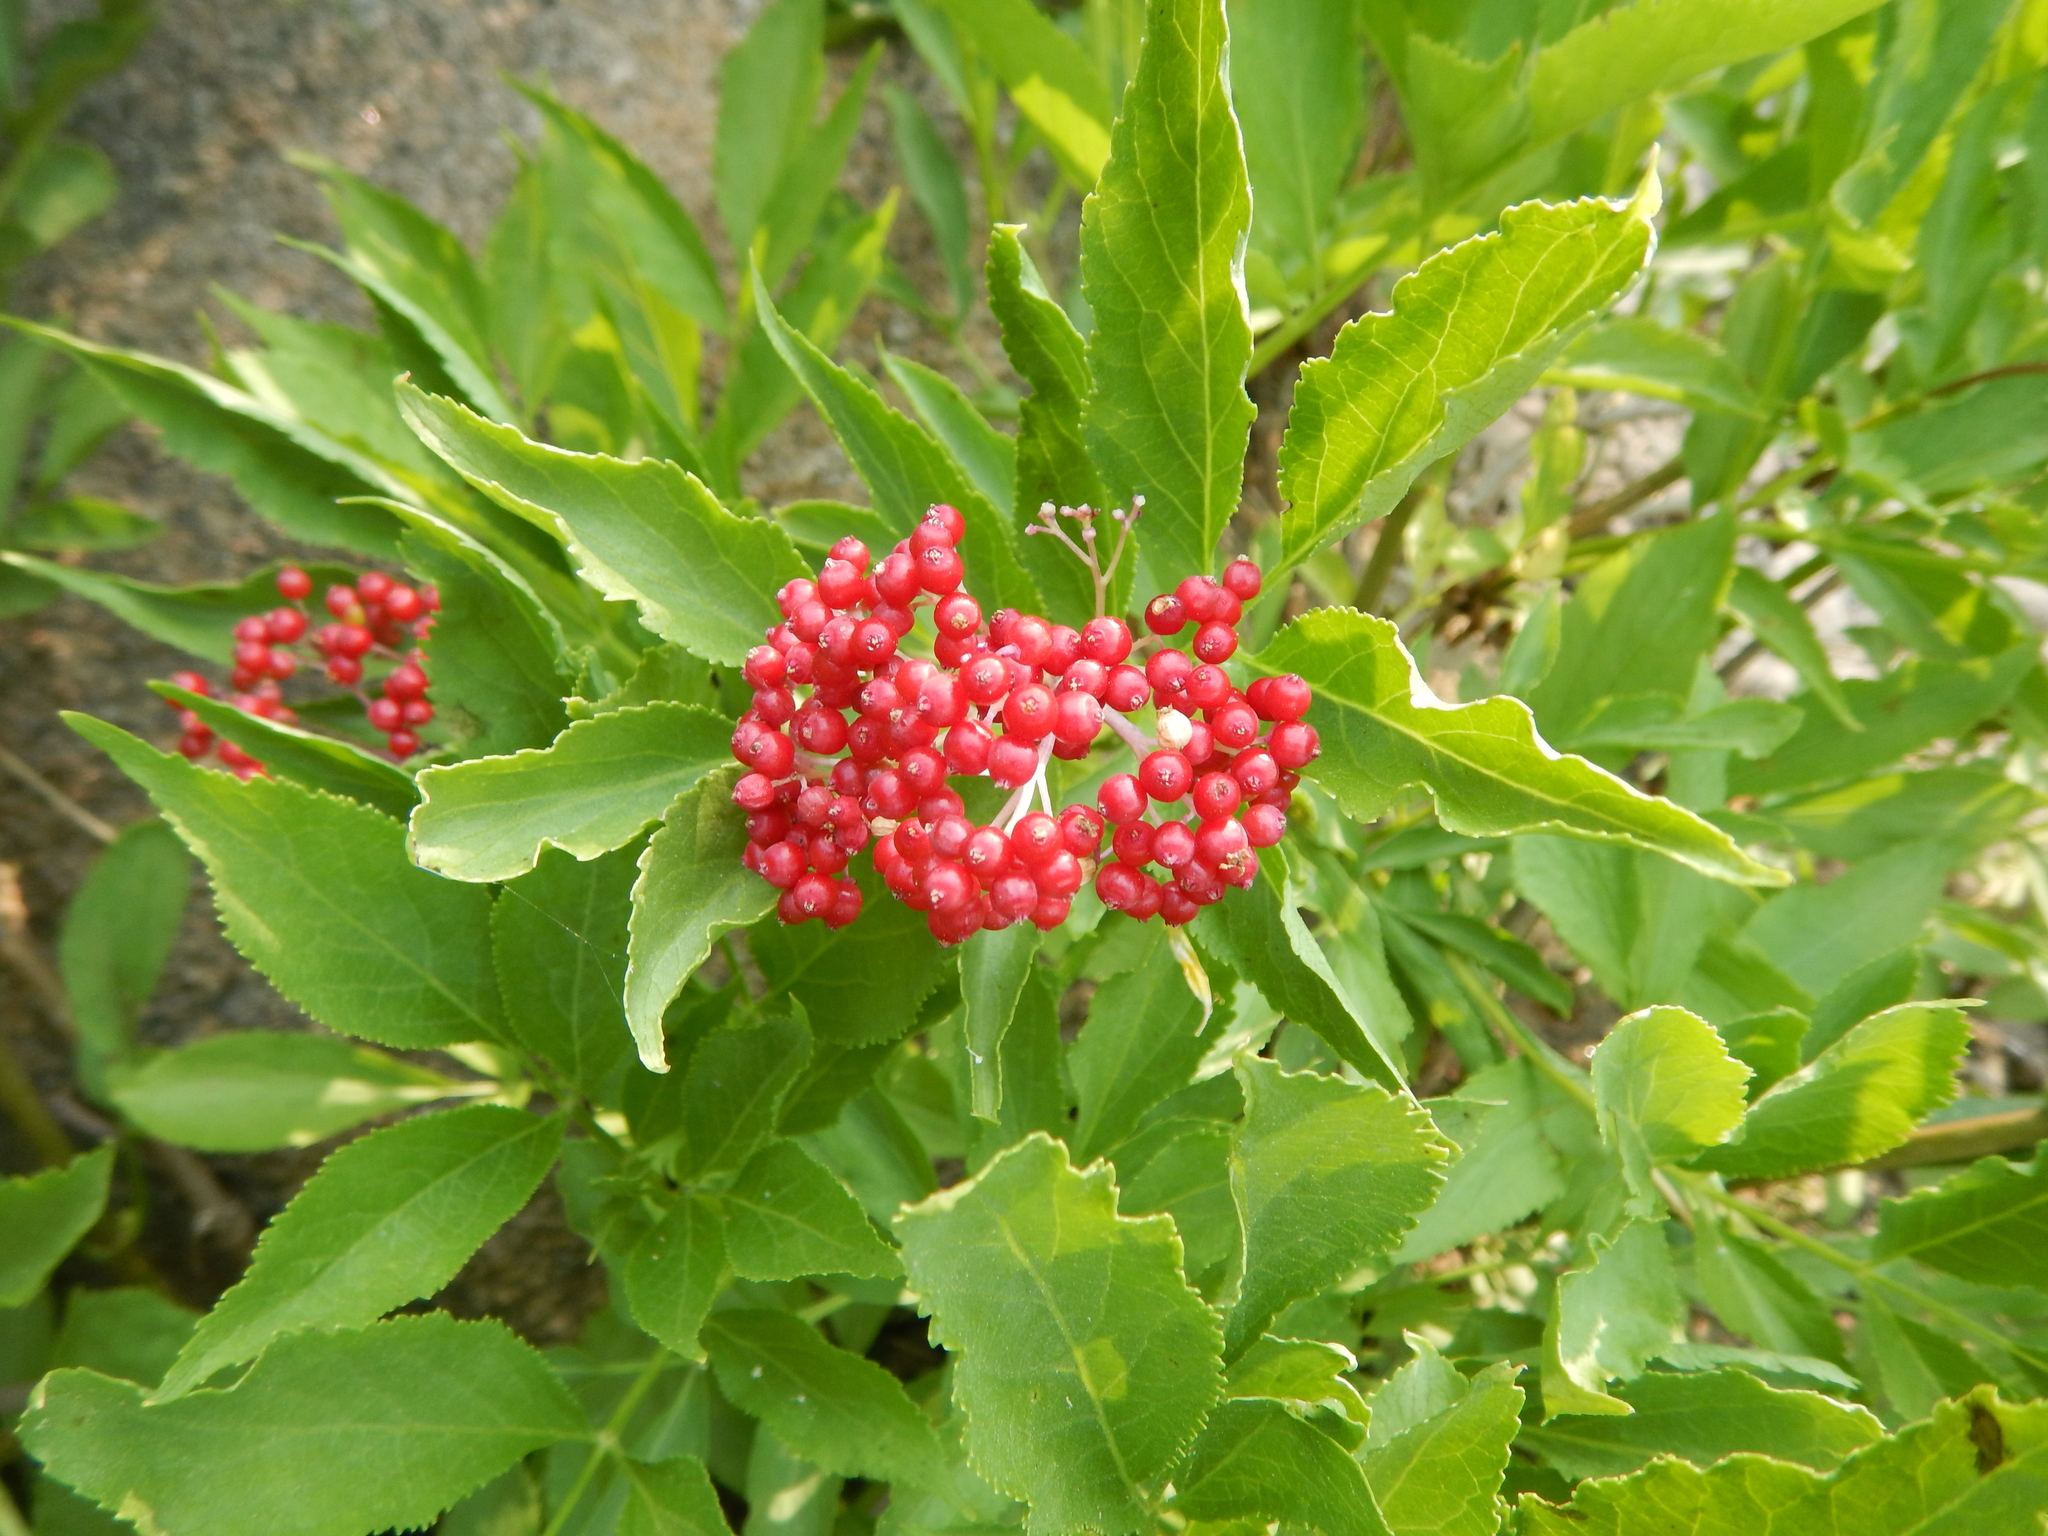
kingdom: Plantae
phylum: Tracheophyta
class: Magnoliopsida
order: Dipsacales
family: Viburnaceae
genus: Sambucus
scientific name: Sambucus racemosa
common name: Red-berried elder
